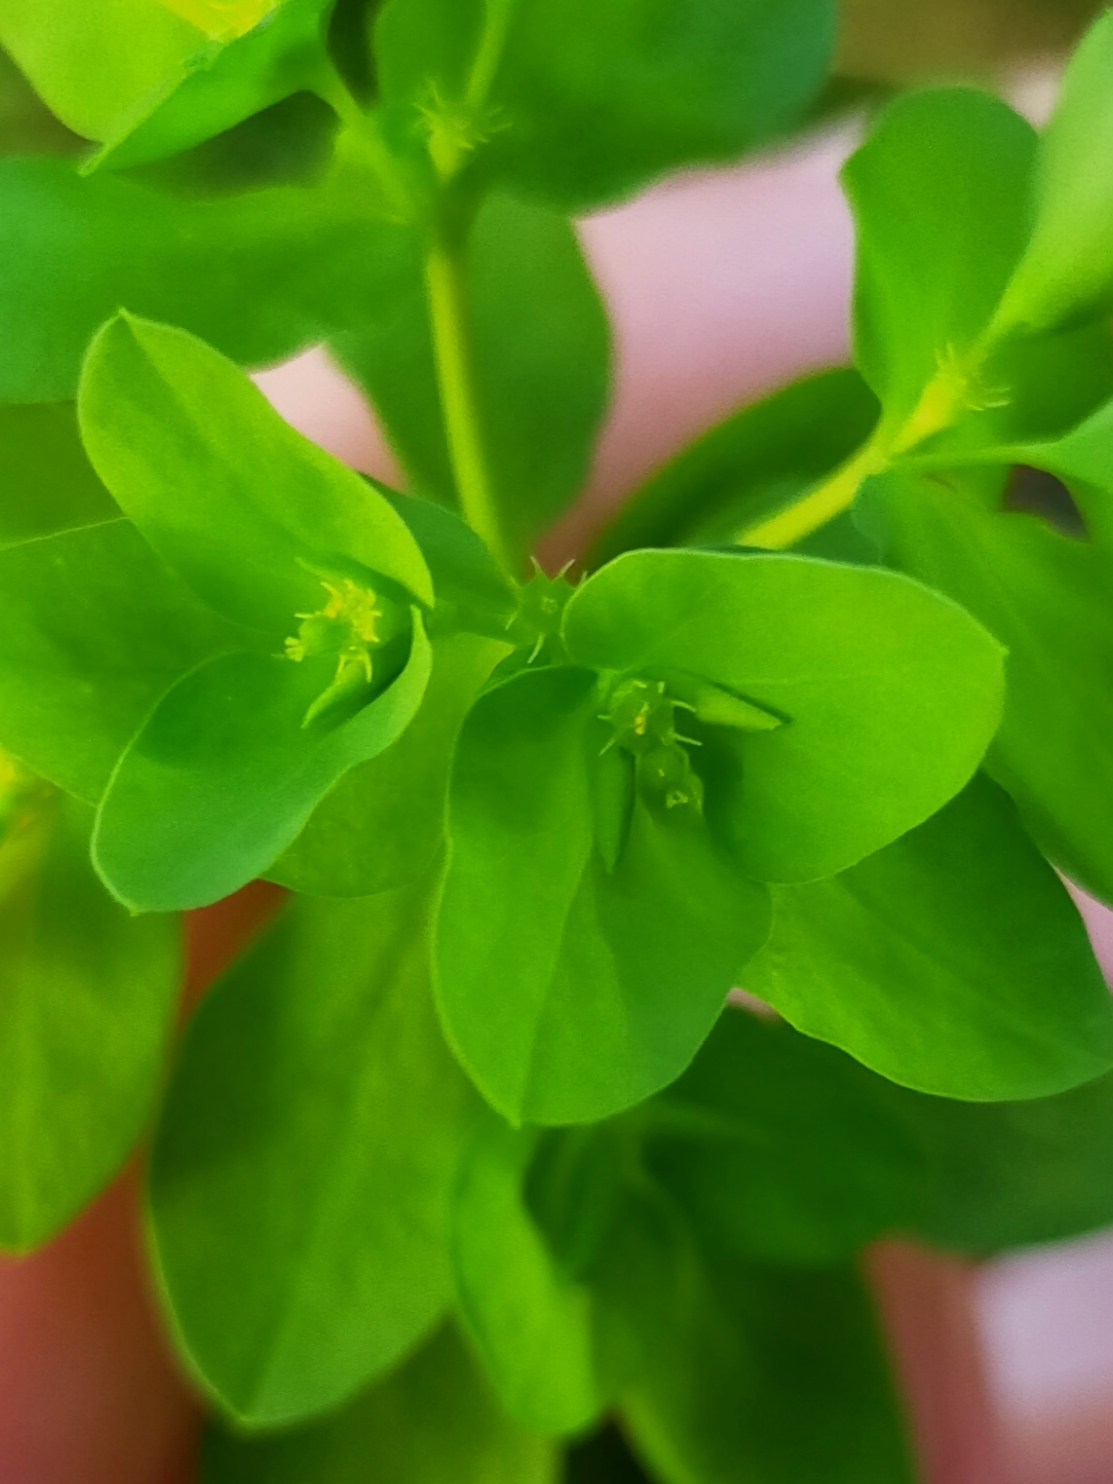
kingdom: Plantae
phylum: Tracheophyta
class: Magnoliopsida
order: Malpighiales
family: Euphorbiaceae
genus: Euphorbia
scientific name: Euphorbia peplus
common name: Petty spurge
